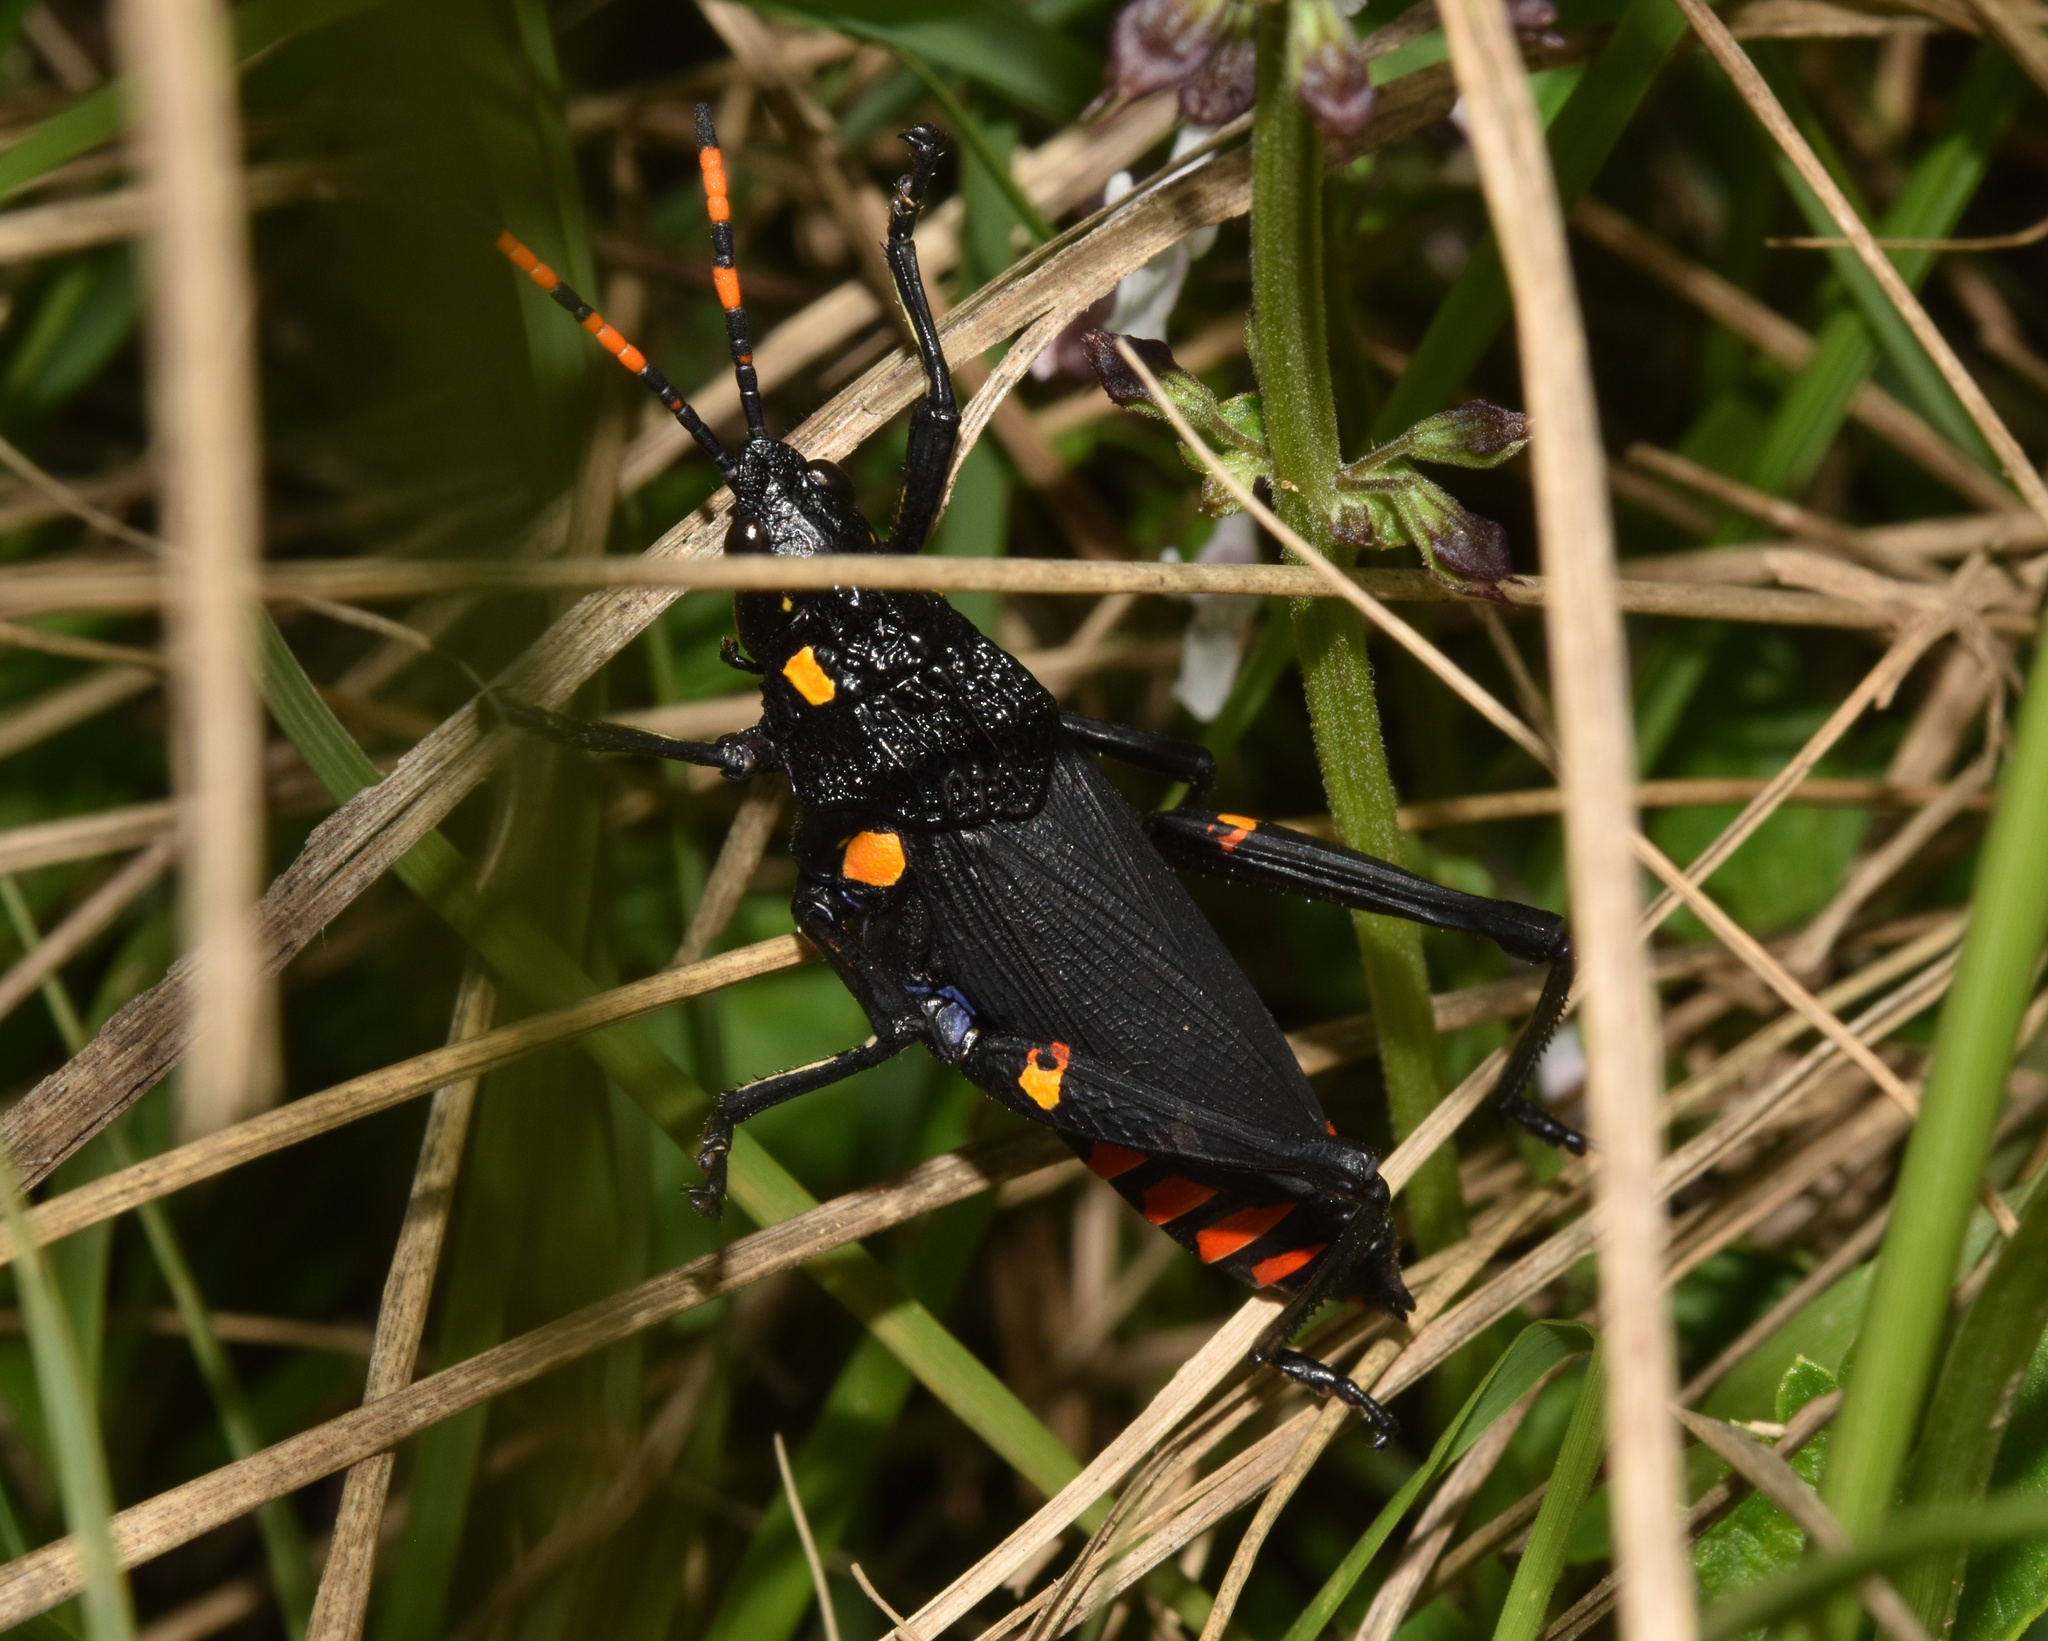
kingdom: Animalia
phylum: Arthropoda
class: Insecta
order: Orthoptera
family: Pyrgomorphidae
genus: Maura
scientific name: Maura rubroornata
